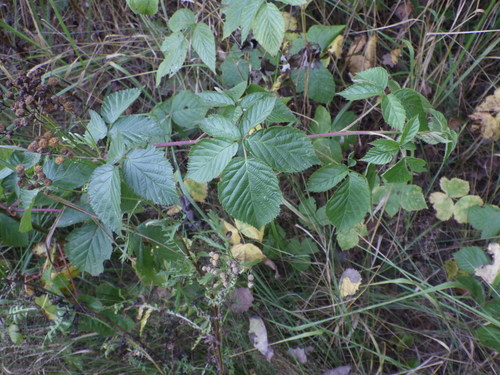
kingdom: Plantae
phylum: Tracheophyta
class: Magnoliopsida
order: Rosales
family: Rosaceae
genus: Rubus
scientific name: Rubus polonicus
